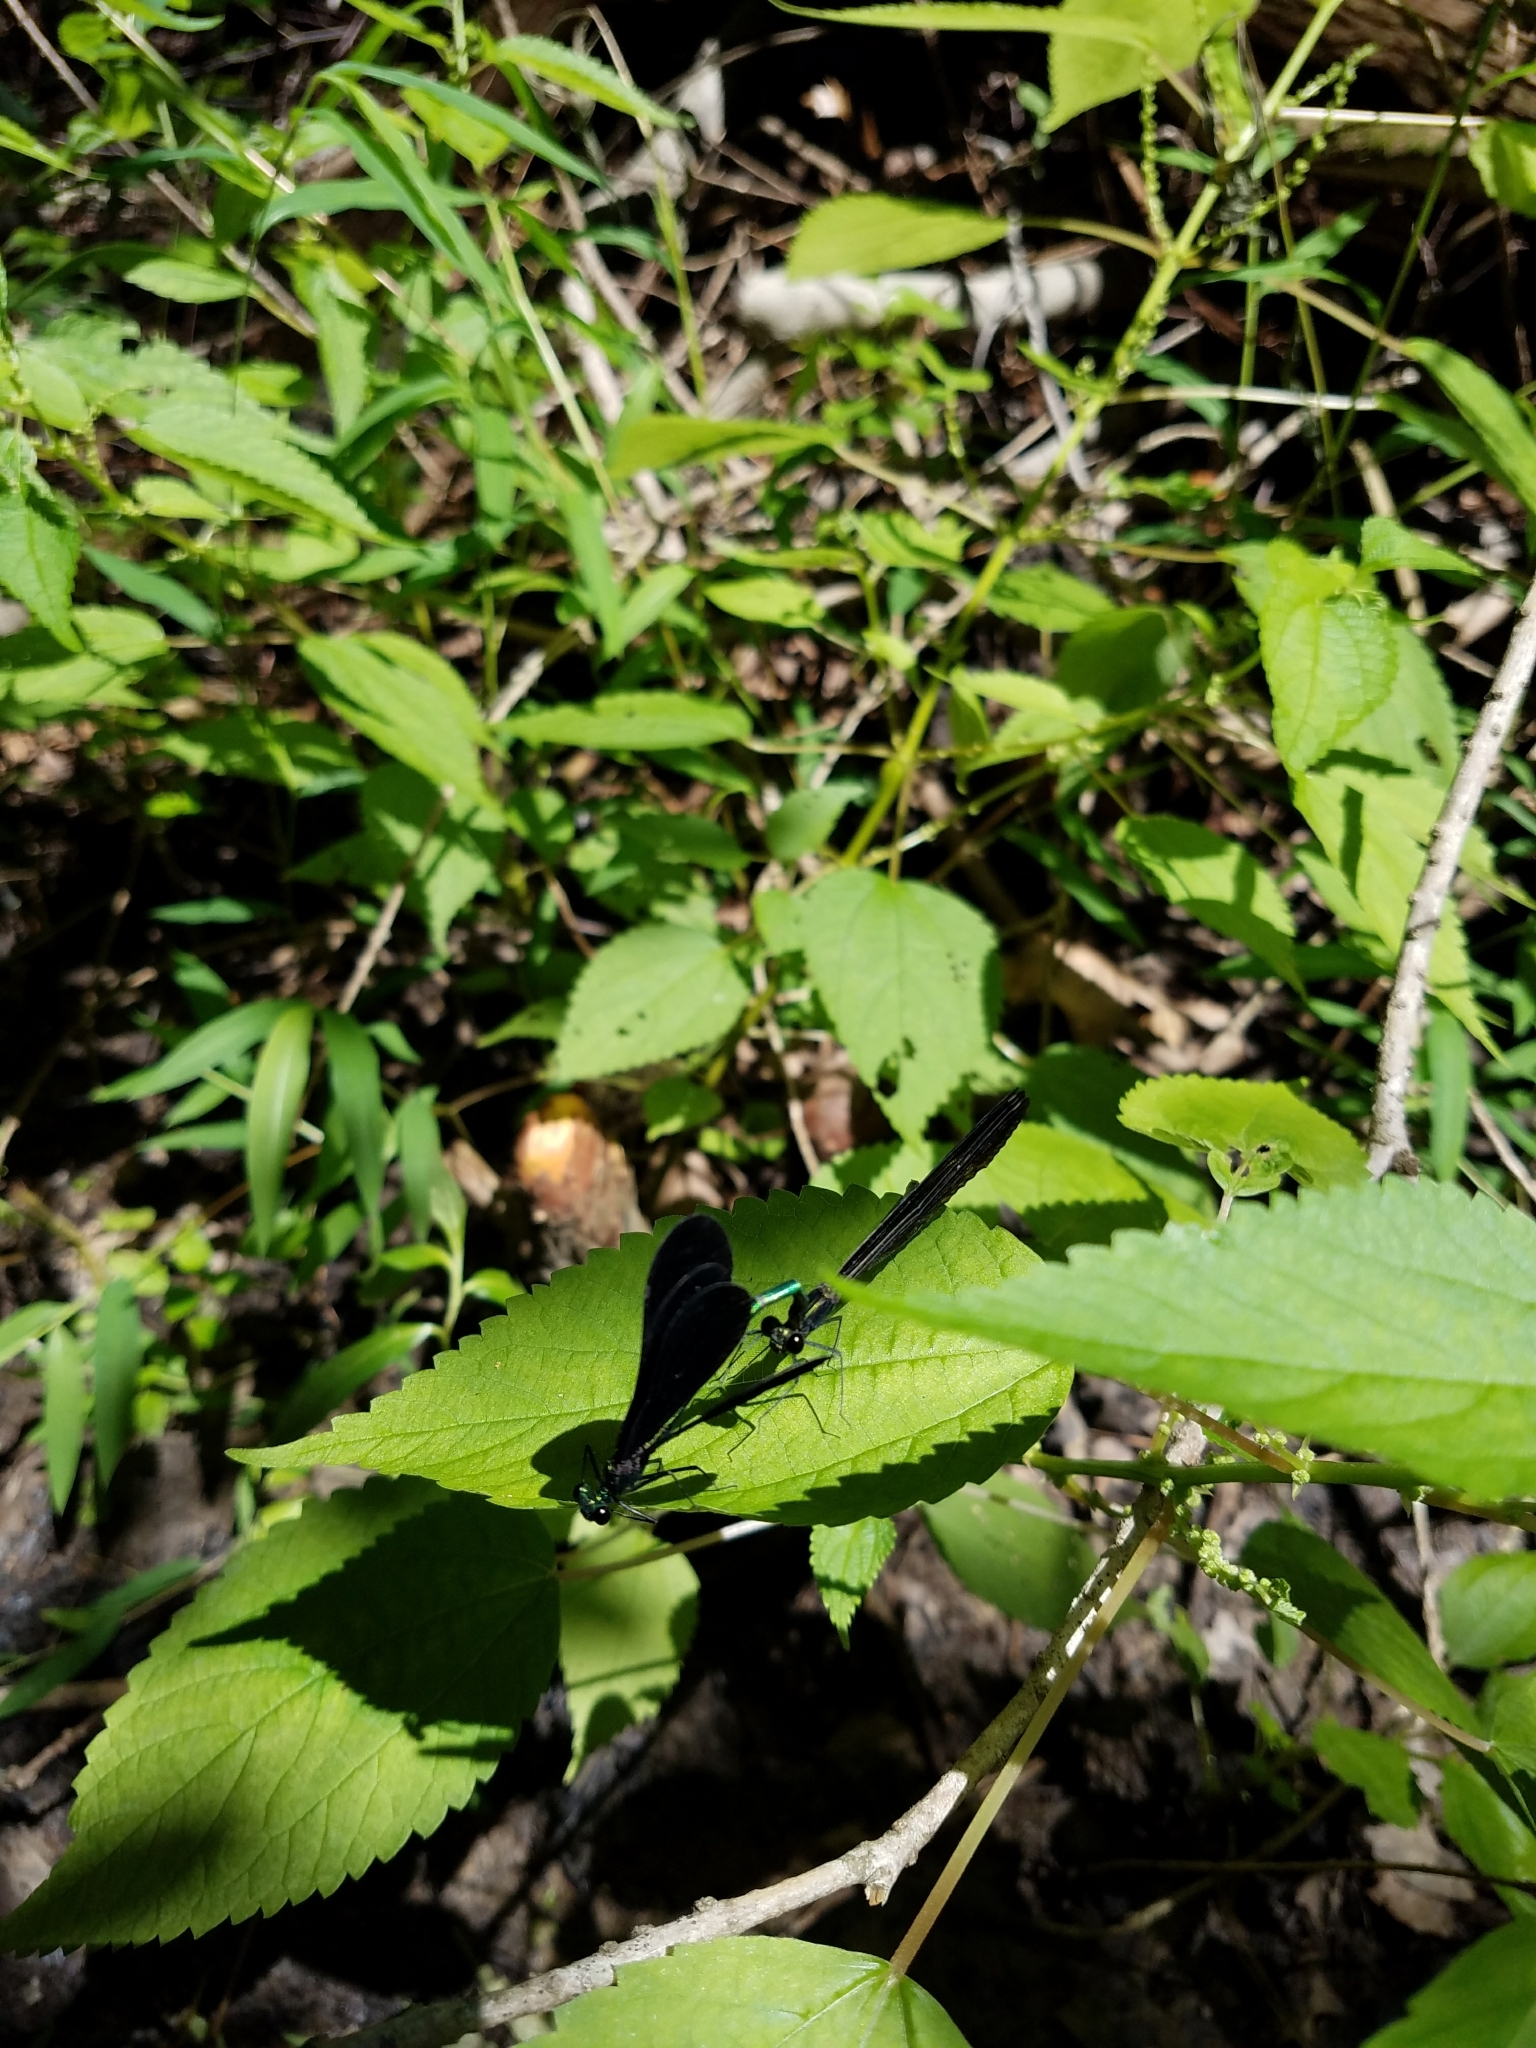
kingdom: Animalia
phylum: Arthropoda
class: Insecta
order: Odonata
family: Calopterygidae
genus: Calopteryx
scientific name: Calopteryx maculata
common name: Ebony jewelwing
